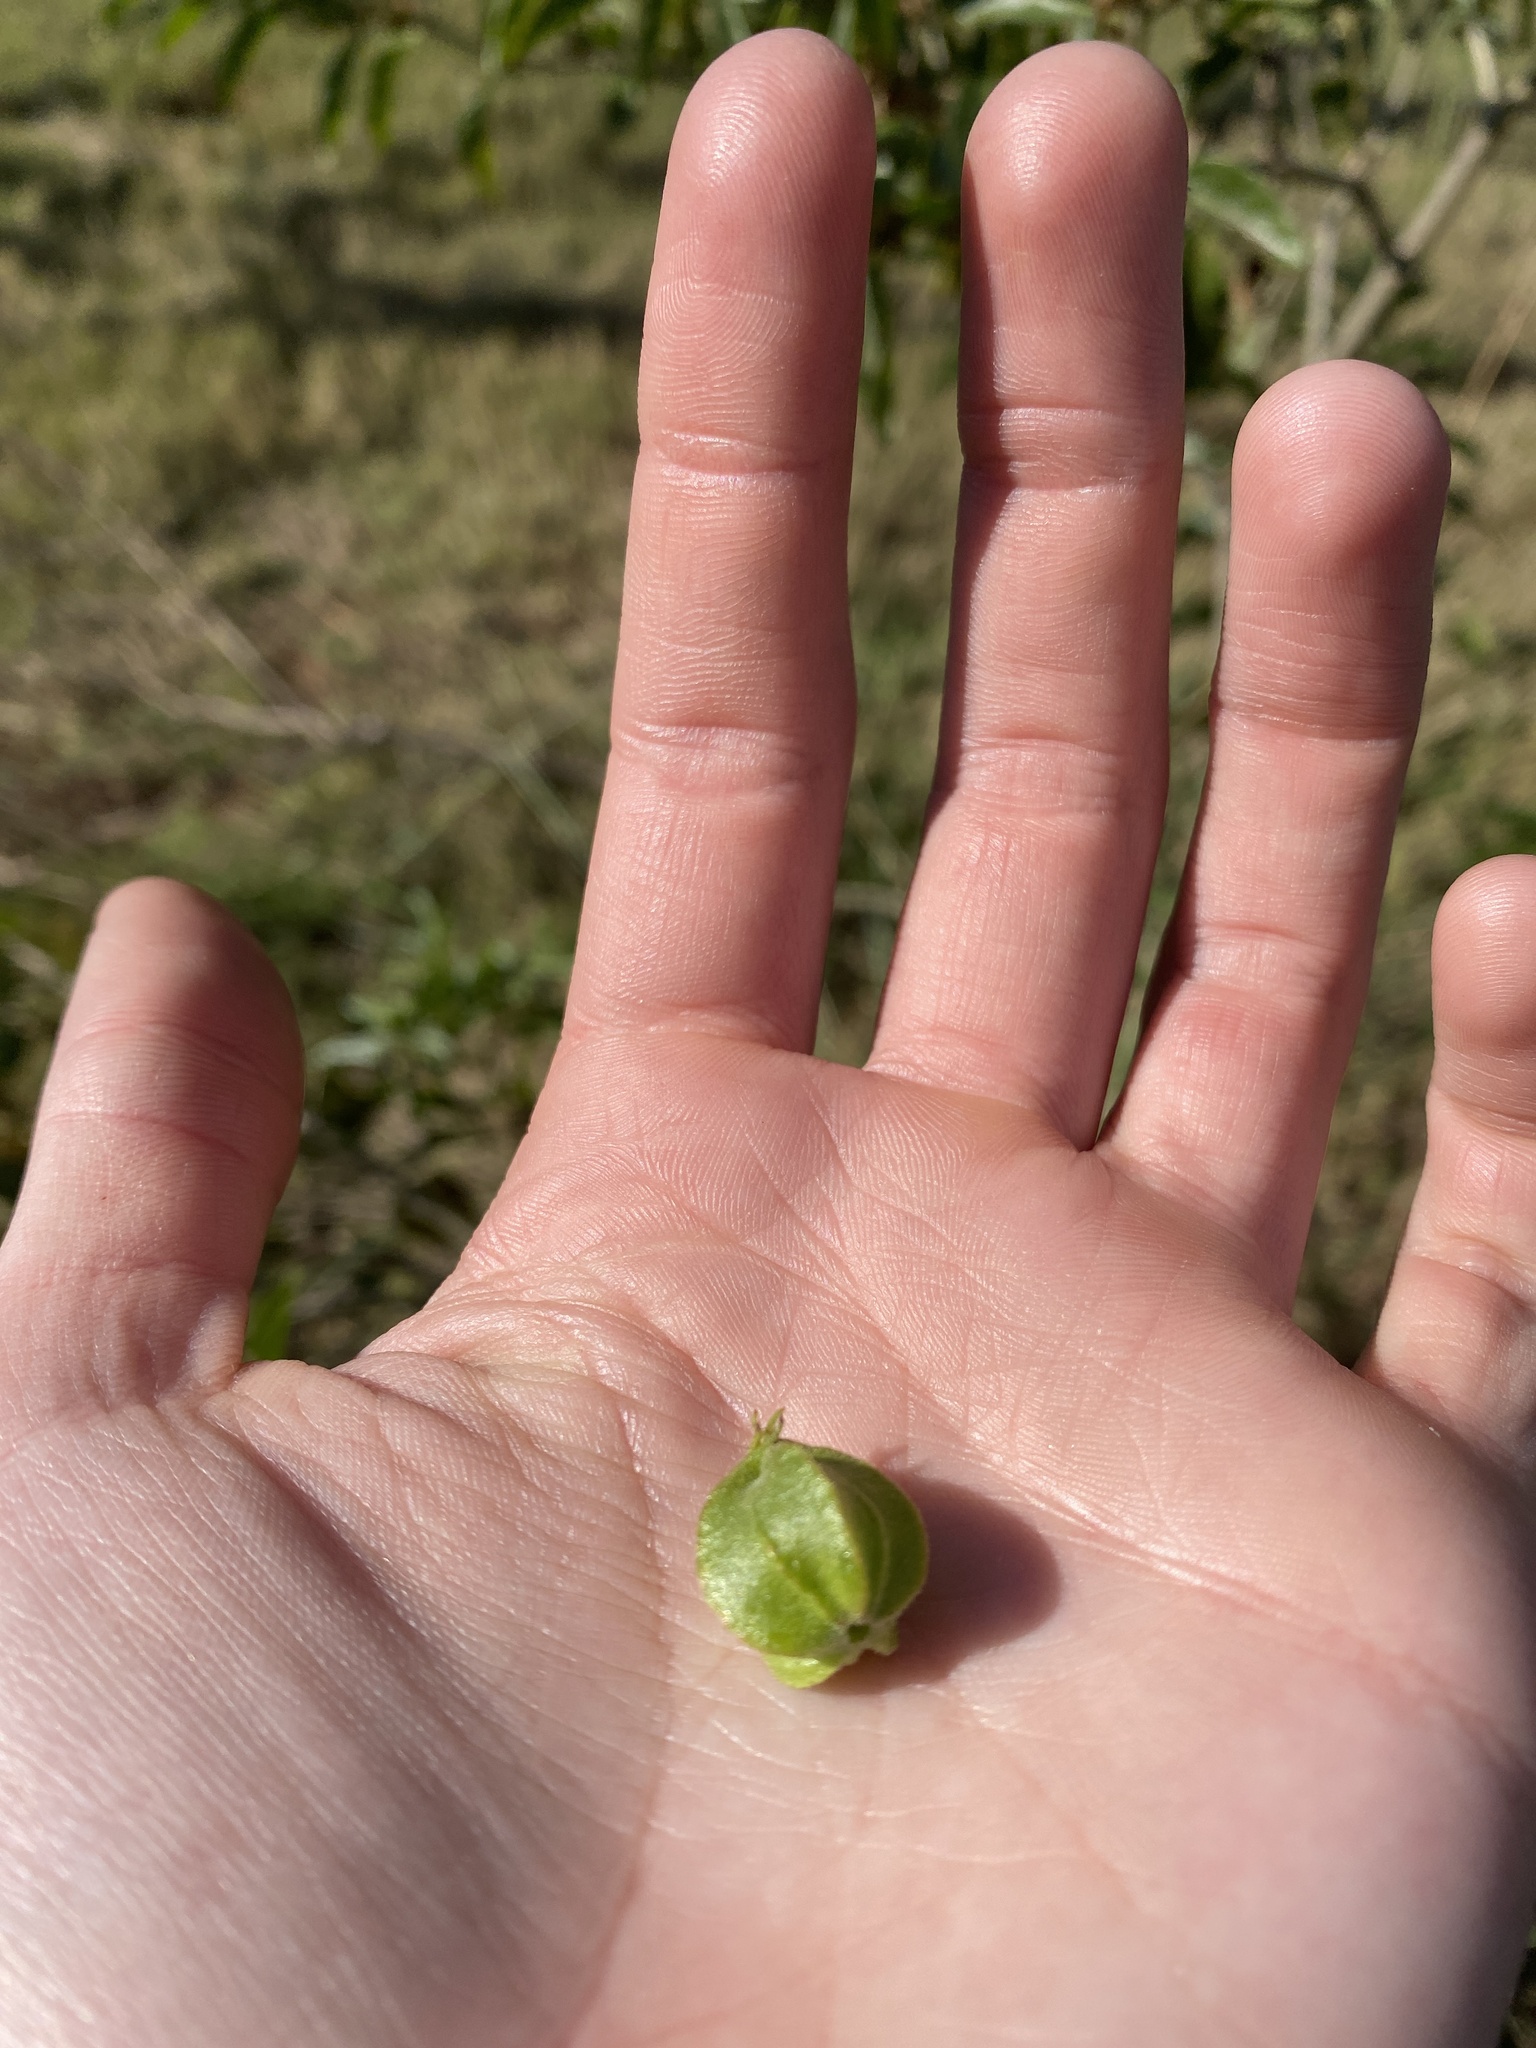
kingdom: Plantae
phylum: Tracheophyta
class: Magnoliopsida
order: Solanales
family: Solanaceae
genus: Withania
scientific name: Withania somnifera
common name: Winter-cherry
